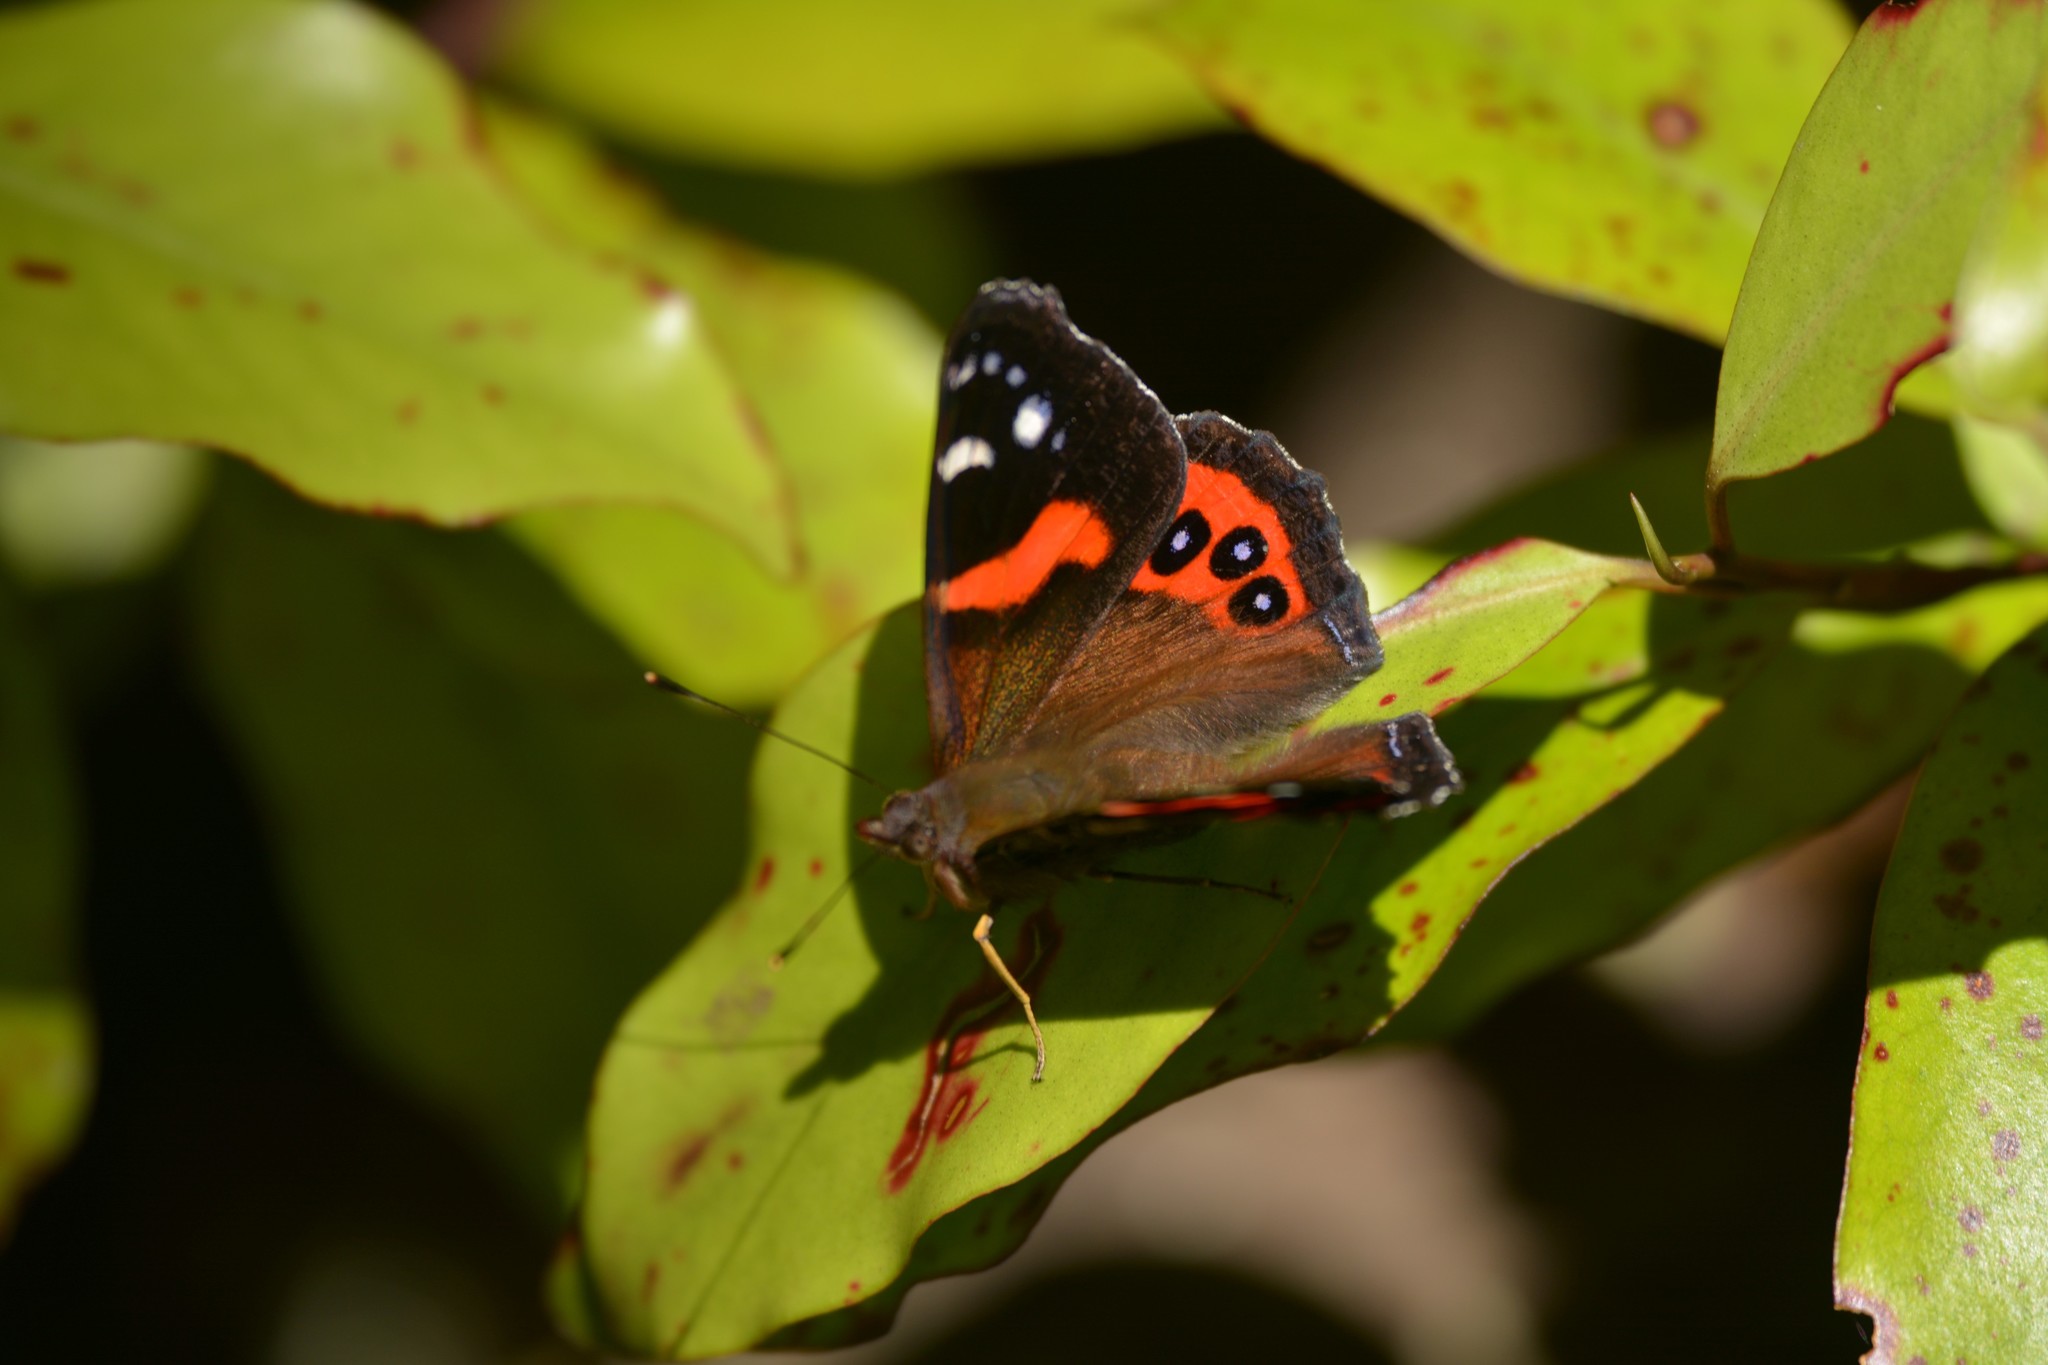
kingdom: Animalia
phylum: Arthropoda
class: Insecta
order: Lepidoptera
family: Nymphalidae
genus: Vanessa
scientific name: Vanessa gonerilla
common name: New zealand red admiral
